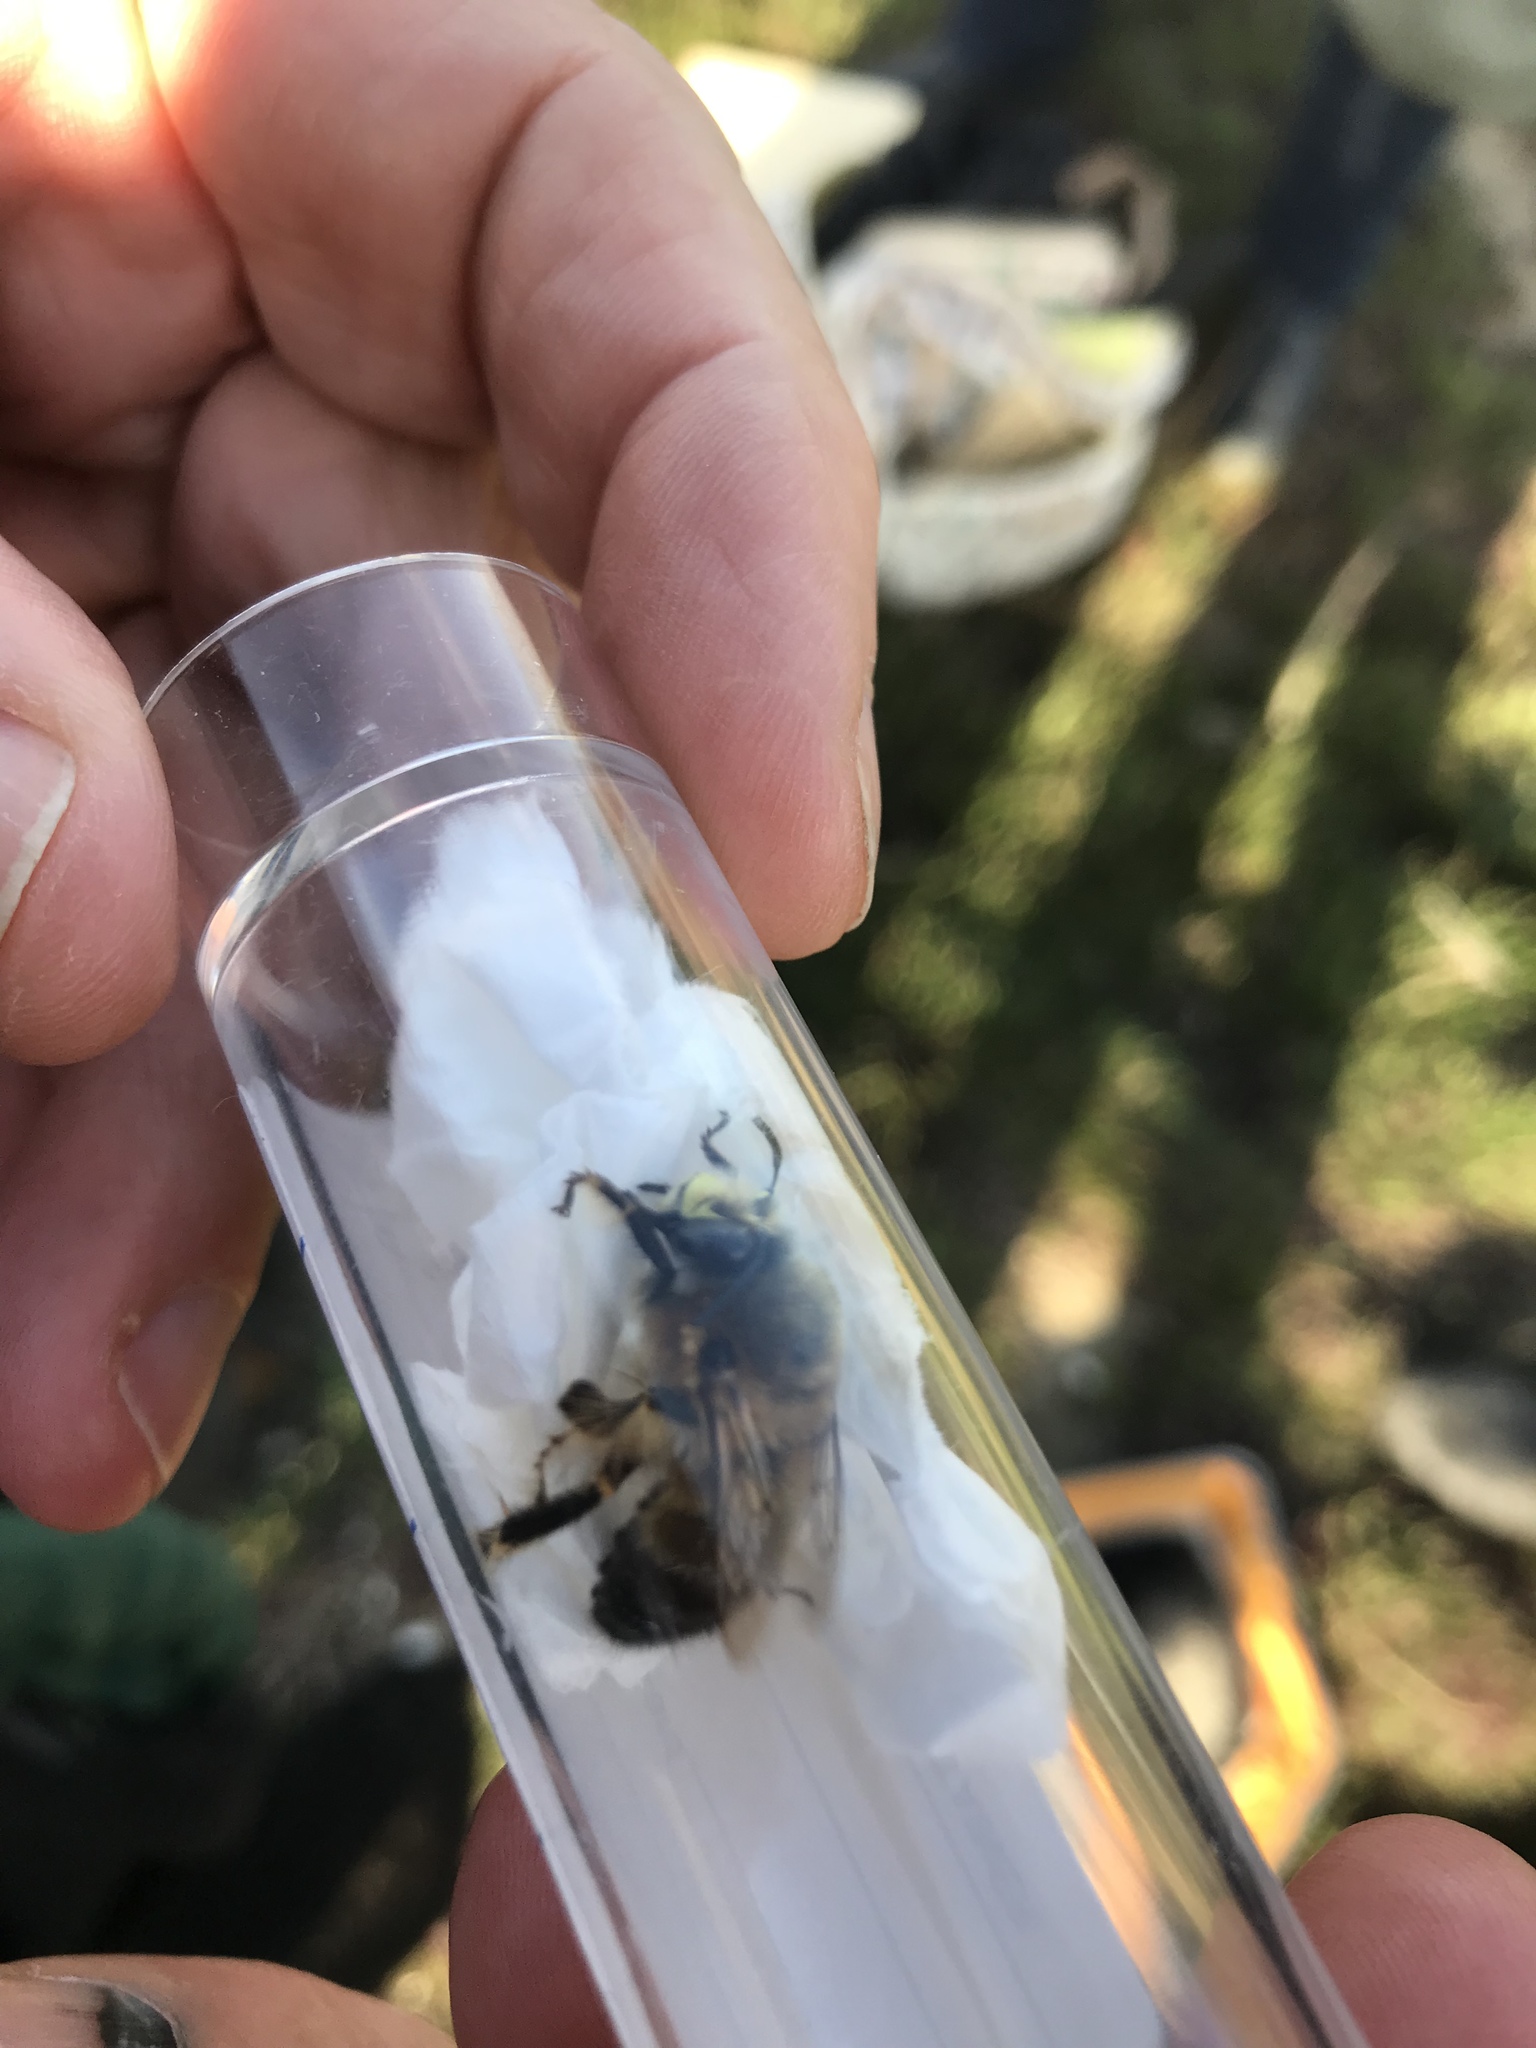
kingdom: Animalia
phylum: Arthropoda
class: Insecta
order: Hymenoptera
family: Apidae
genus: Anthophora
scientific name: Anthophora rutilans
